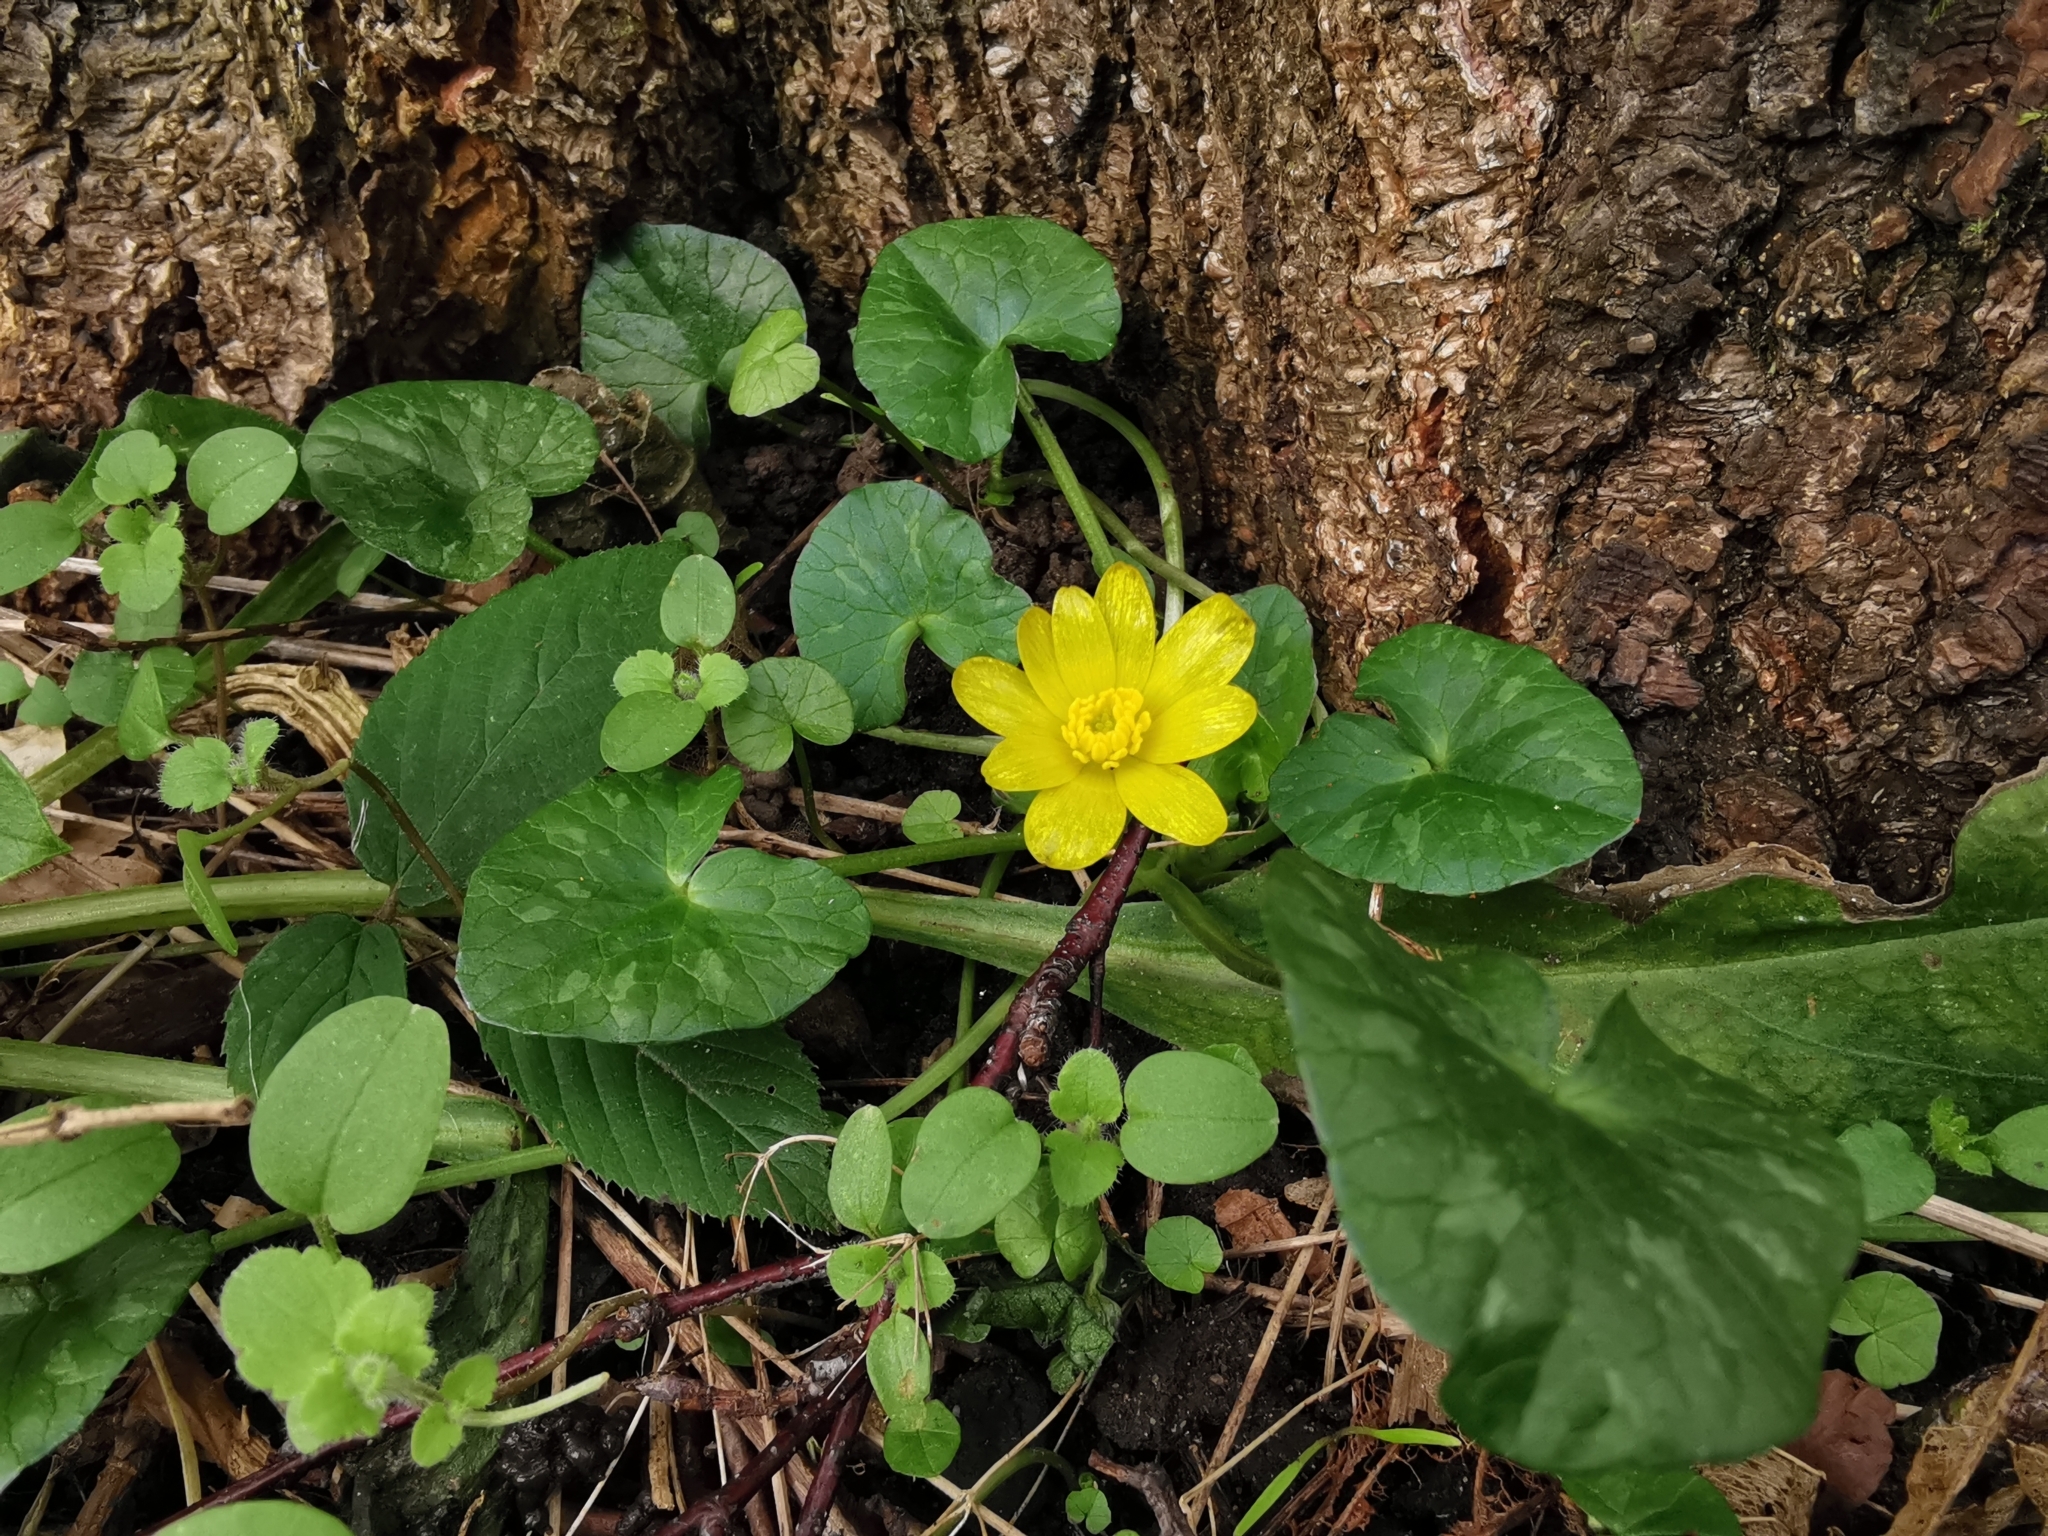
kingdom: Plantae
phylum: Tracheophyta
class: Magnoliopsida
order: Ranunculales
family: Ranunculaceae
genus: Ficaria
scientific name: Ficaria verna
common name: Lesser celandine
